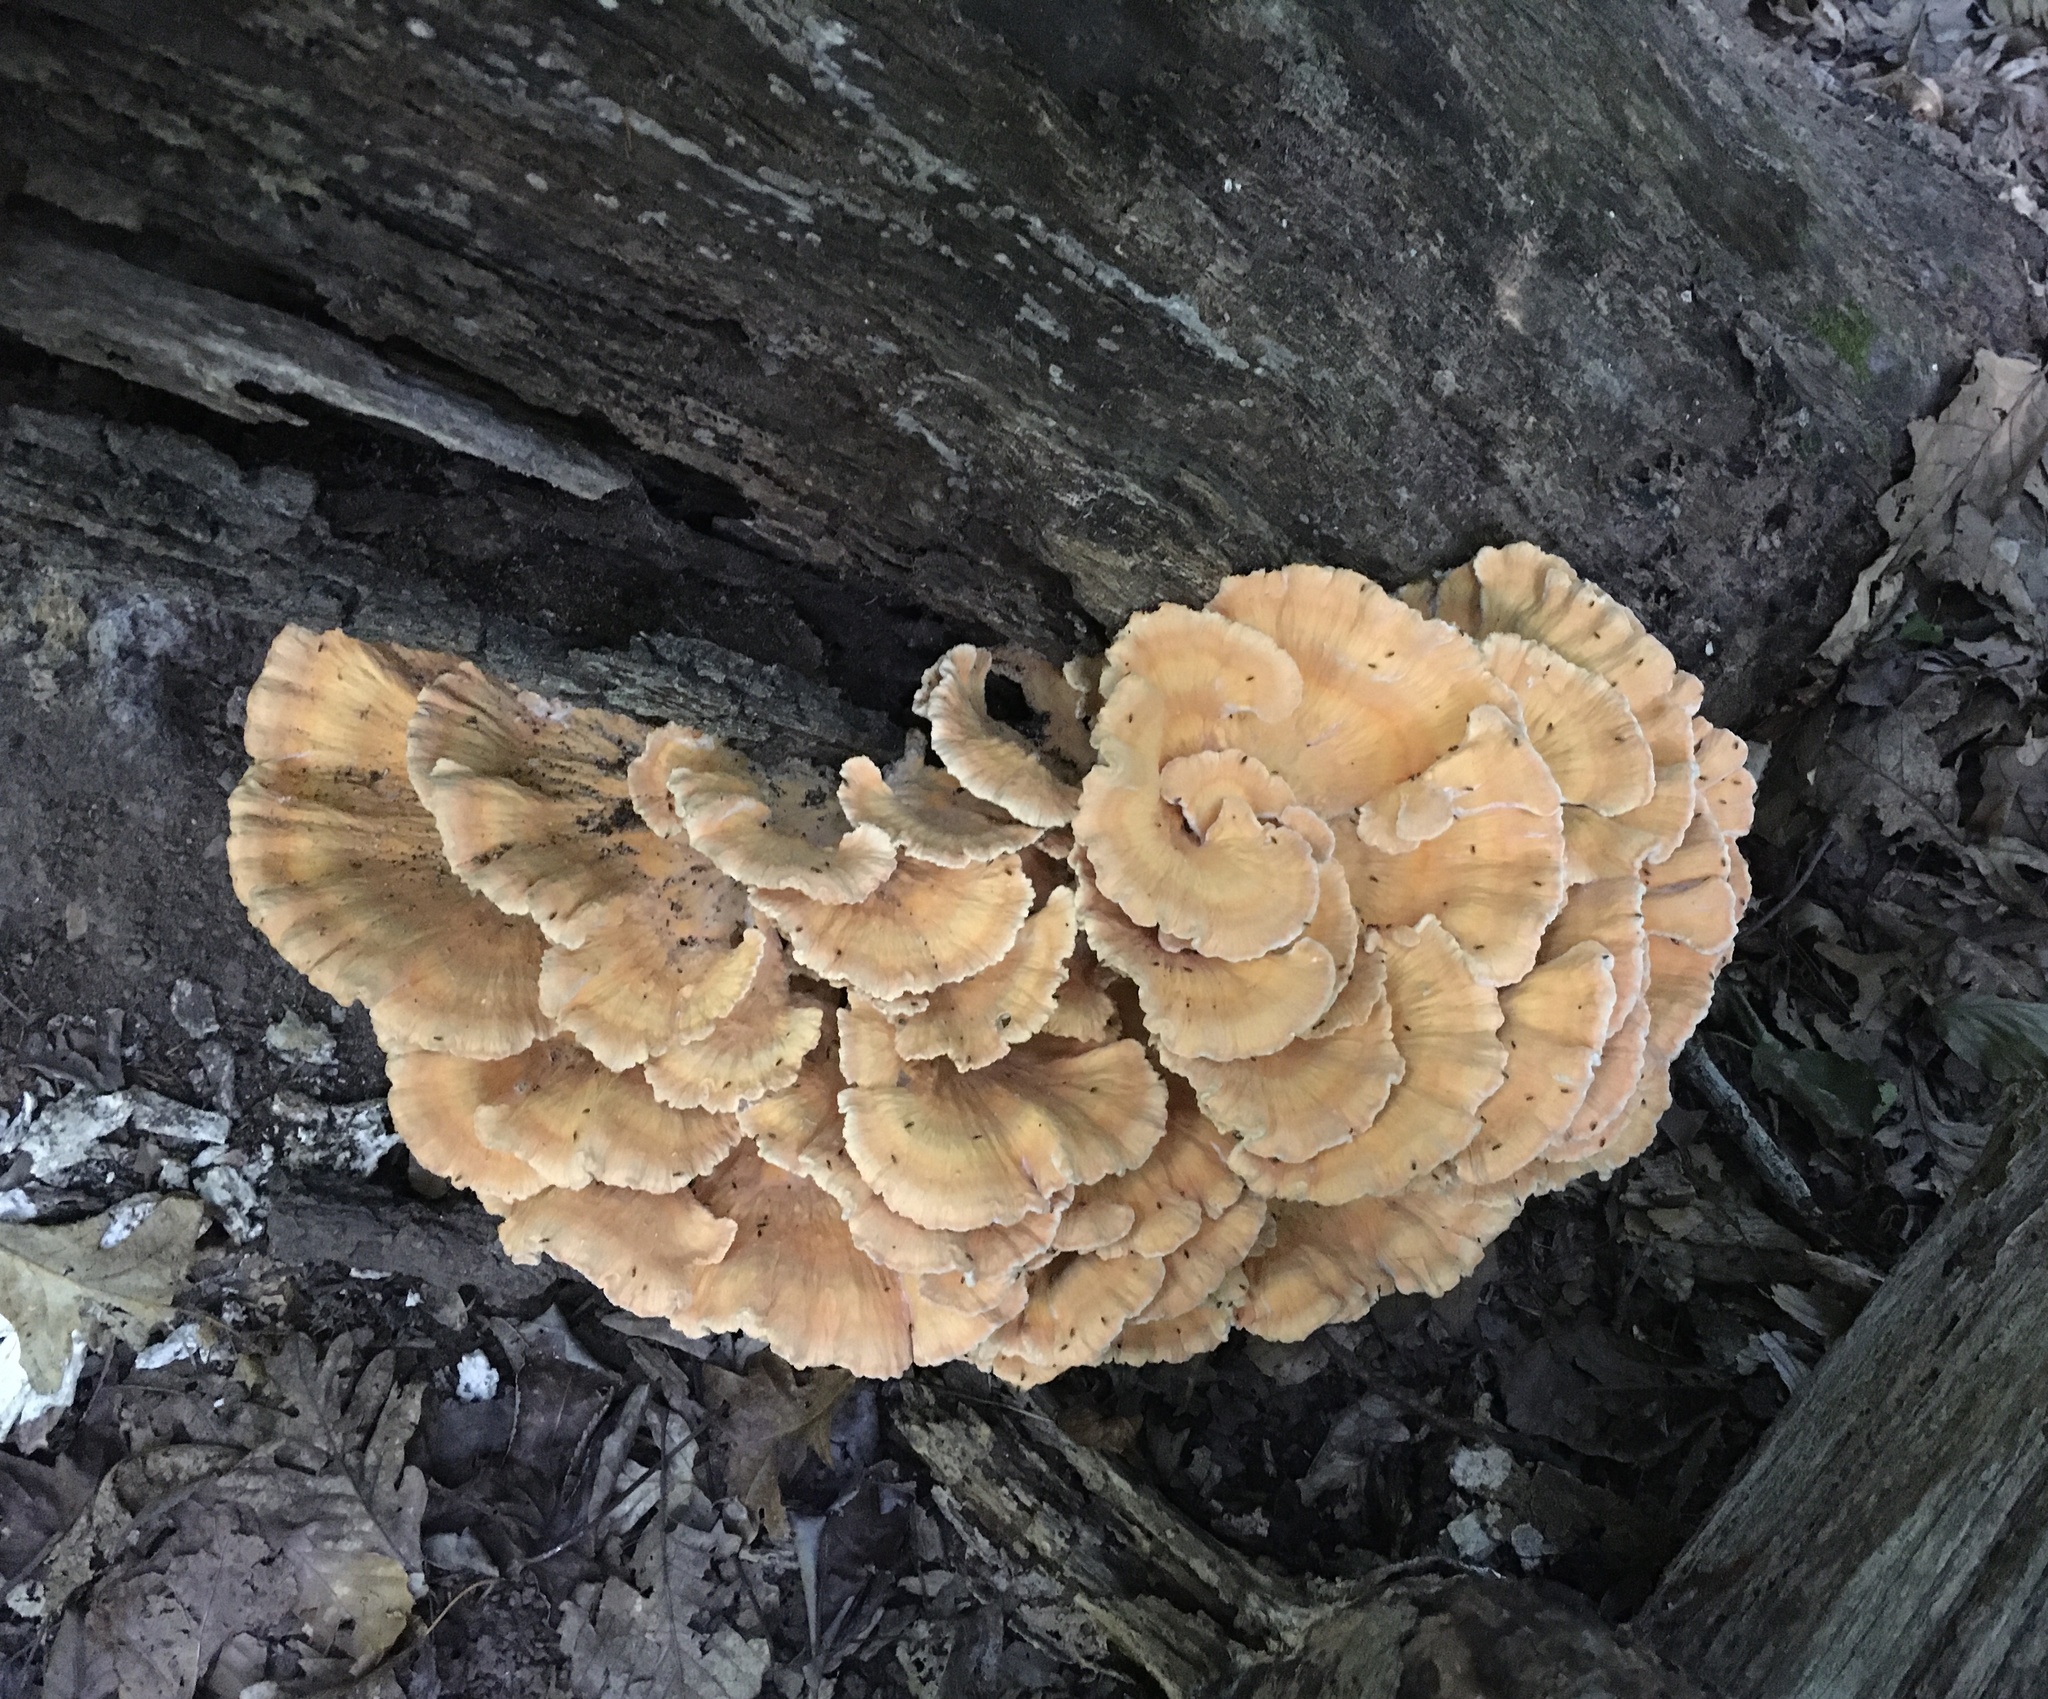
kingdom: Fungi
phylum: Basidiomycota
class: Agaricomycetes
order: Polyporales
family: Laetiporaceae
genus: Laetiporus
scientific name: Laetiporus sulphureus
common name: Chicken of the woods
